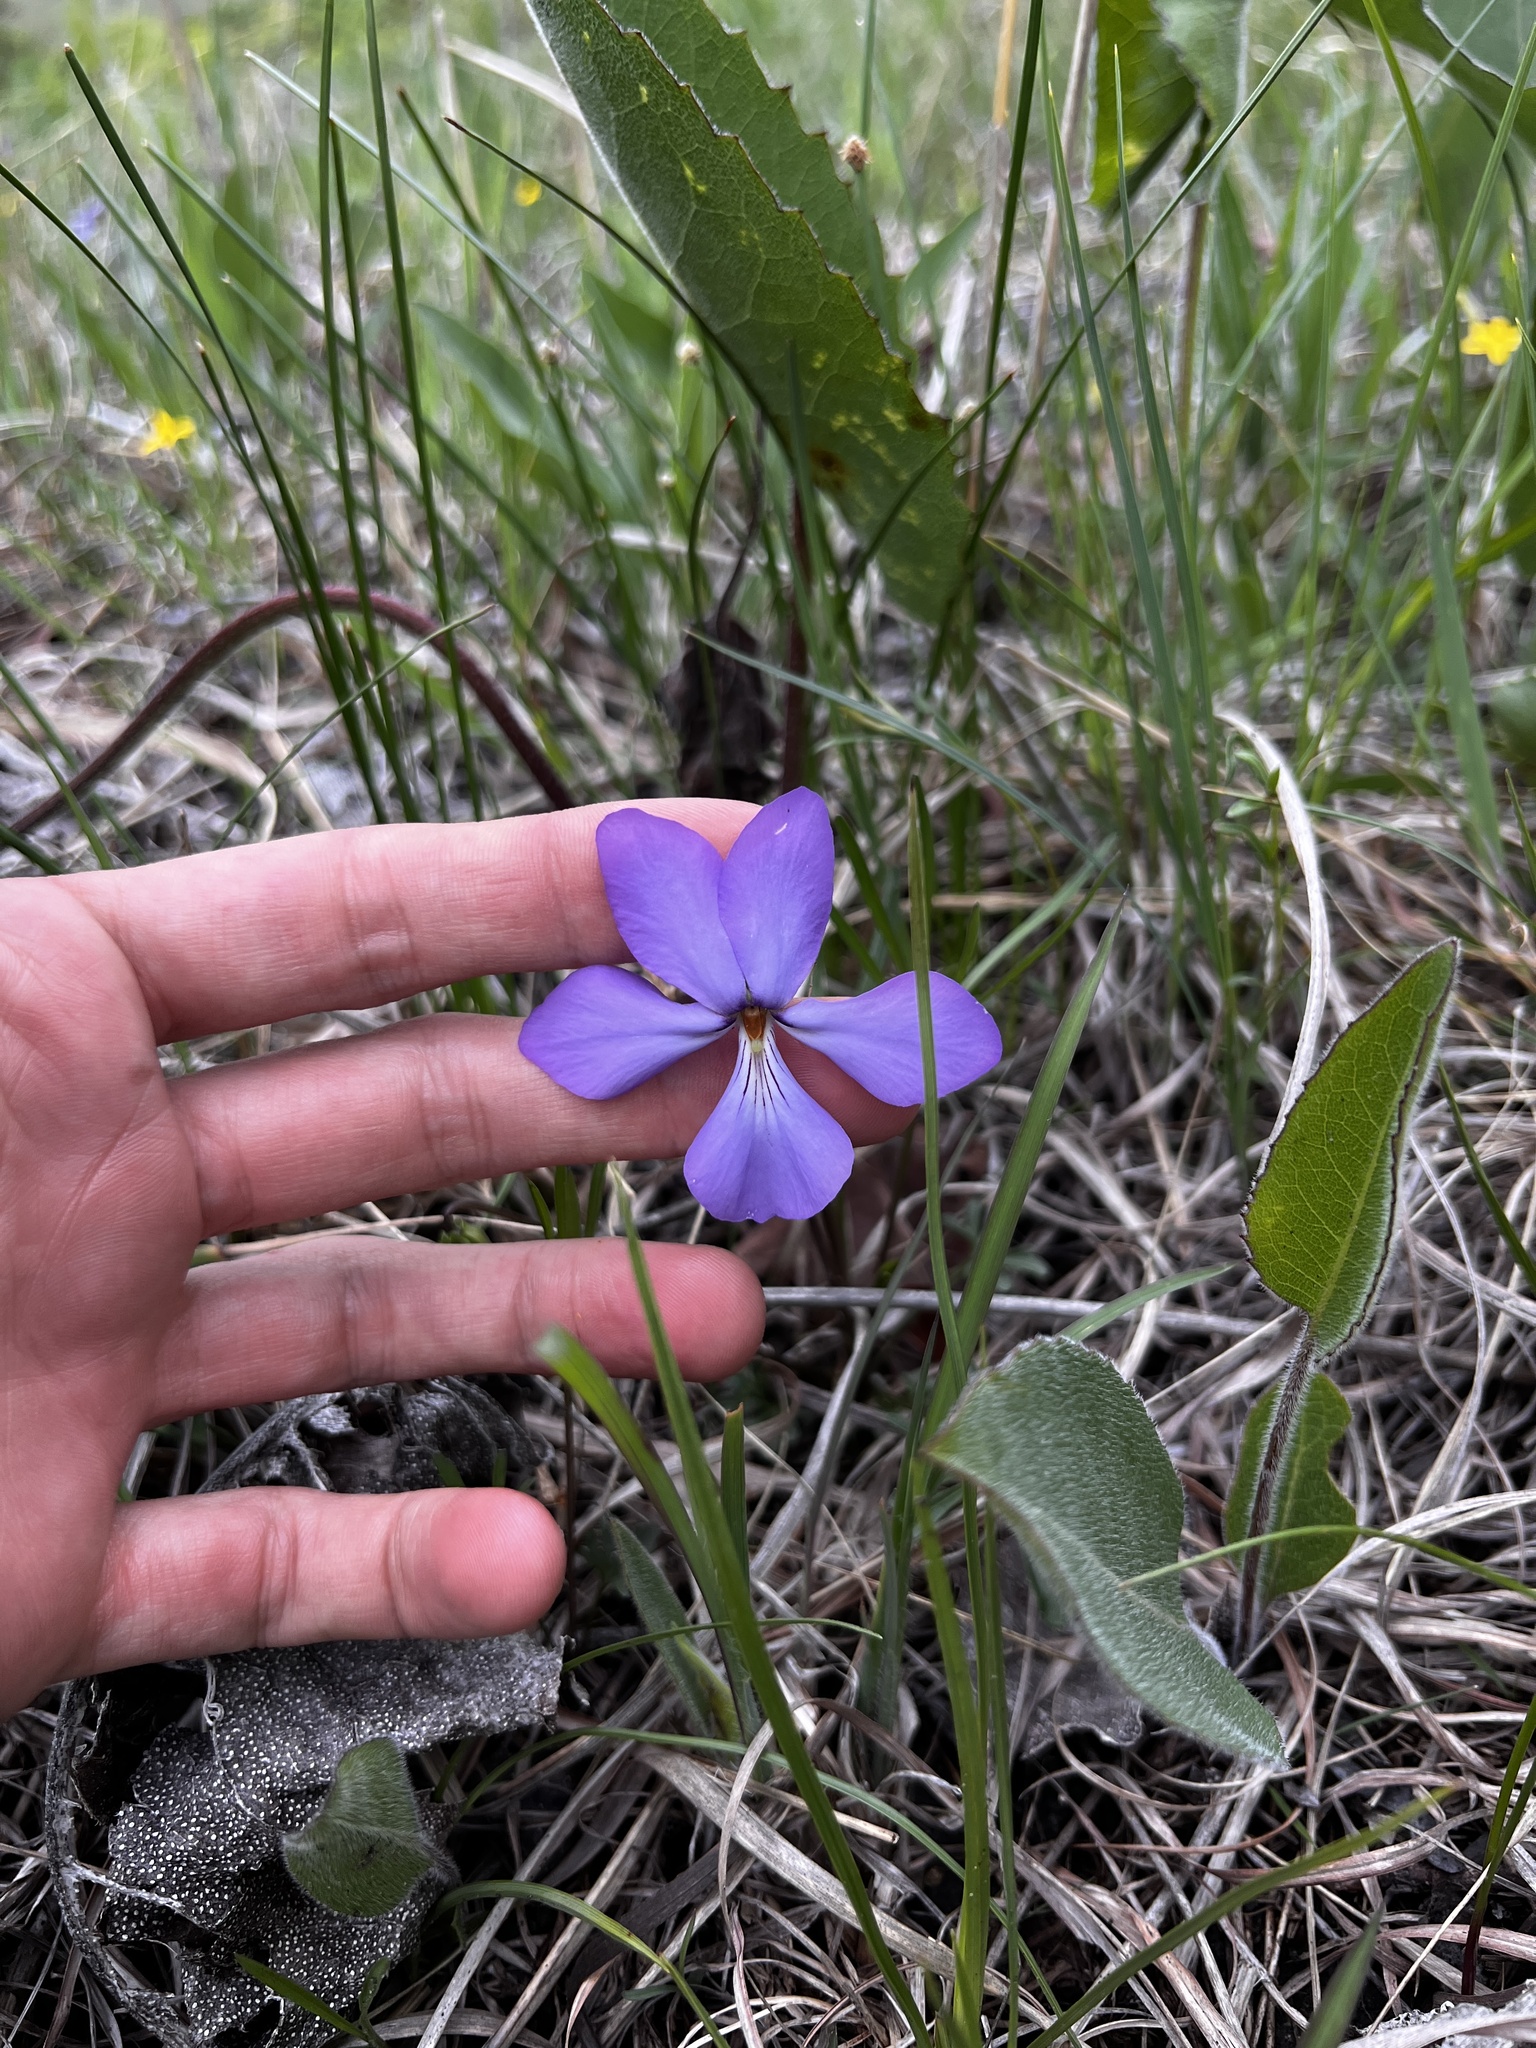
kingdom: Plantae
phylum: Tracheophyta
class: Magnoliopsida
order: Malpighiales
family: Violaceae
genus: Viola
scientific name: Viola pedata
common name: Pansy violet
